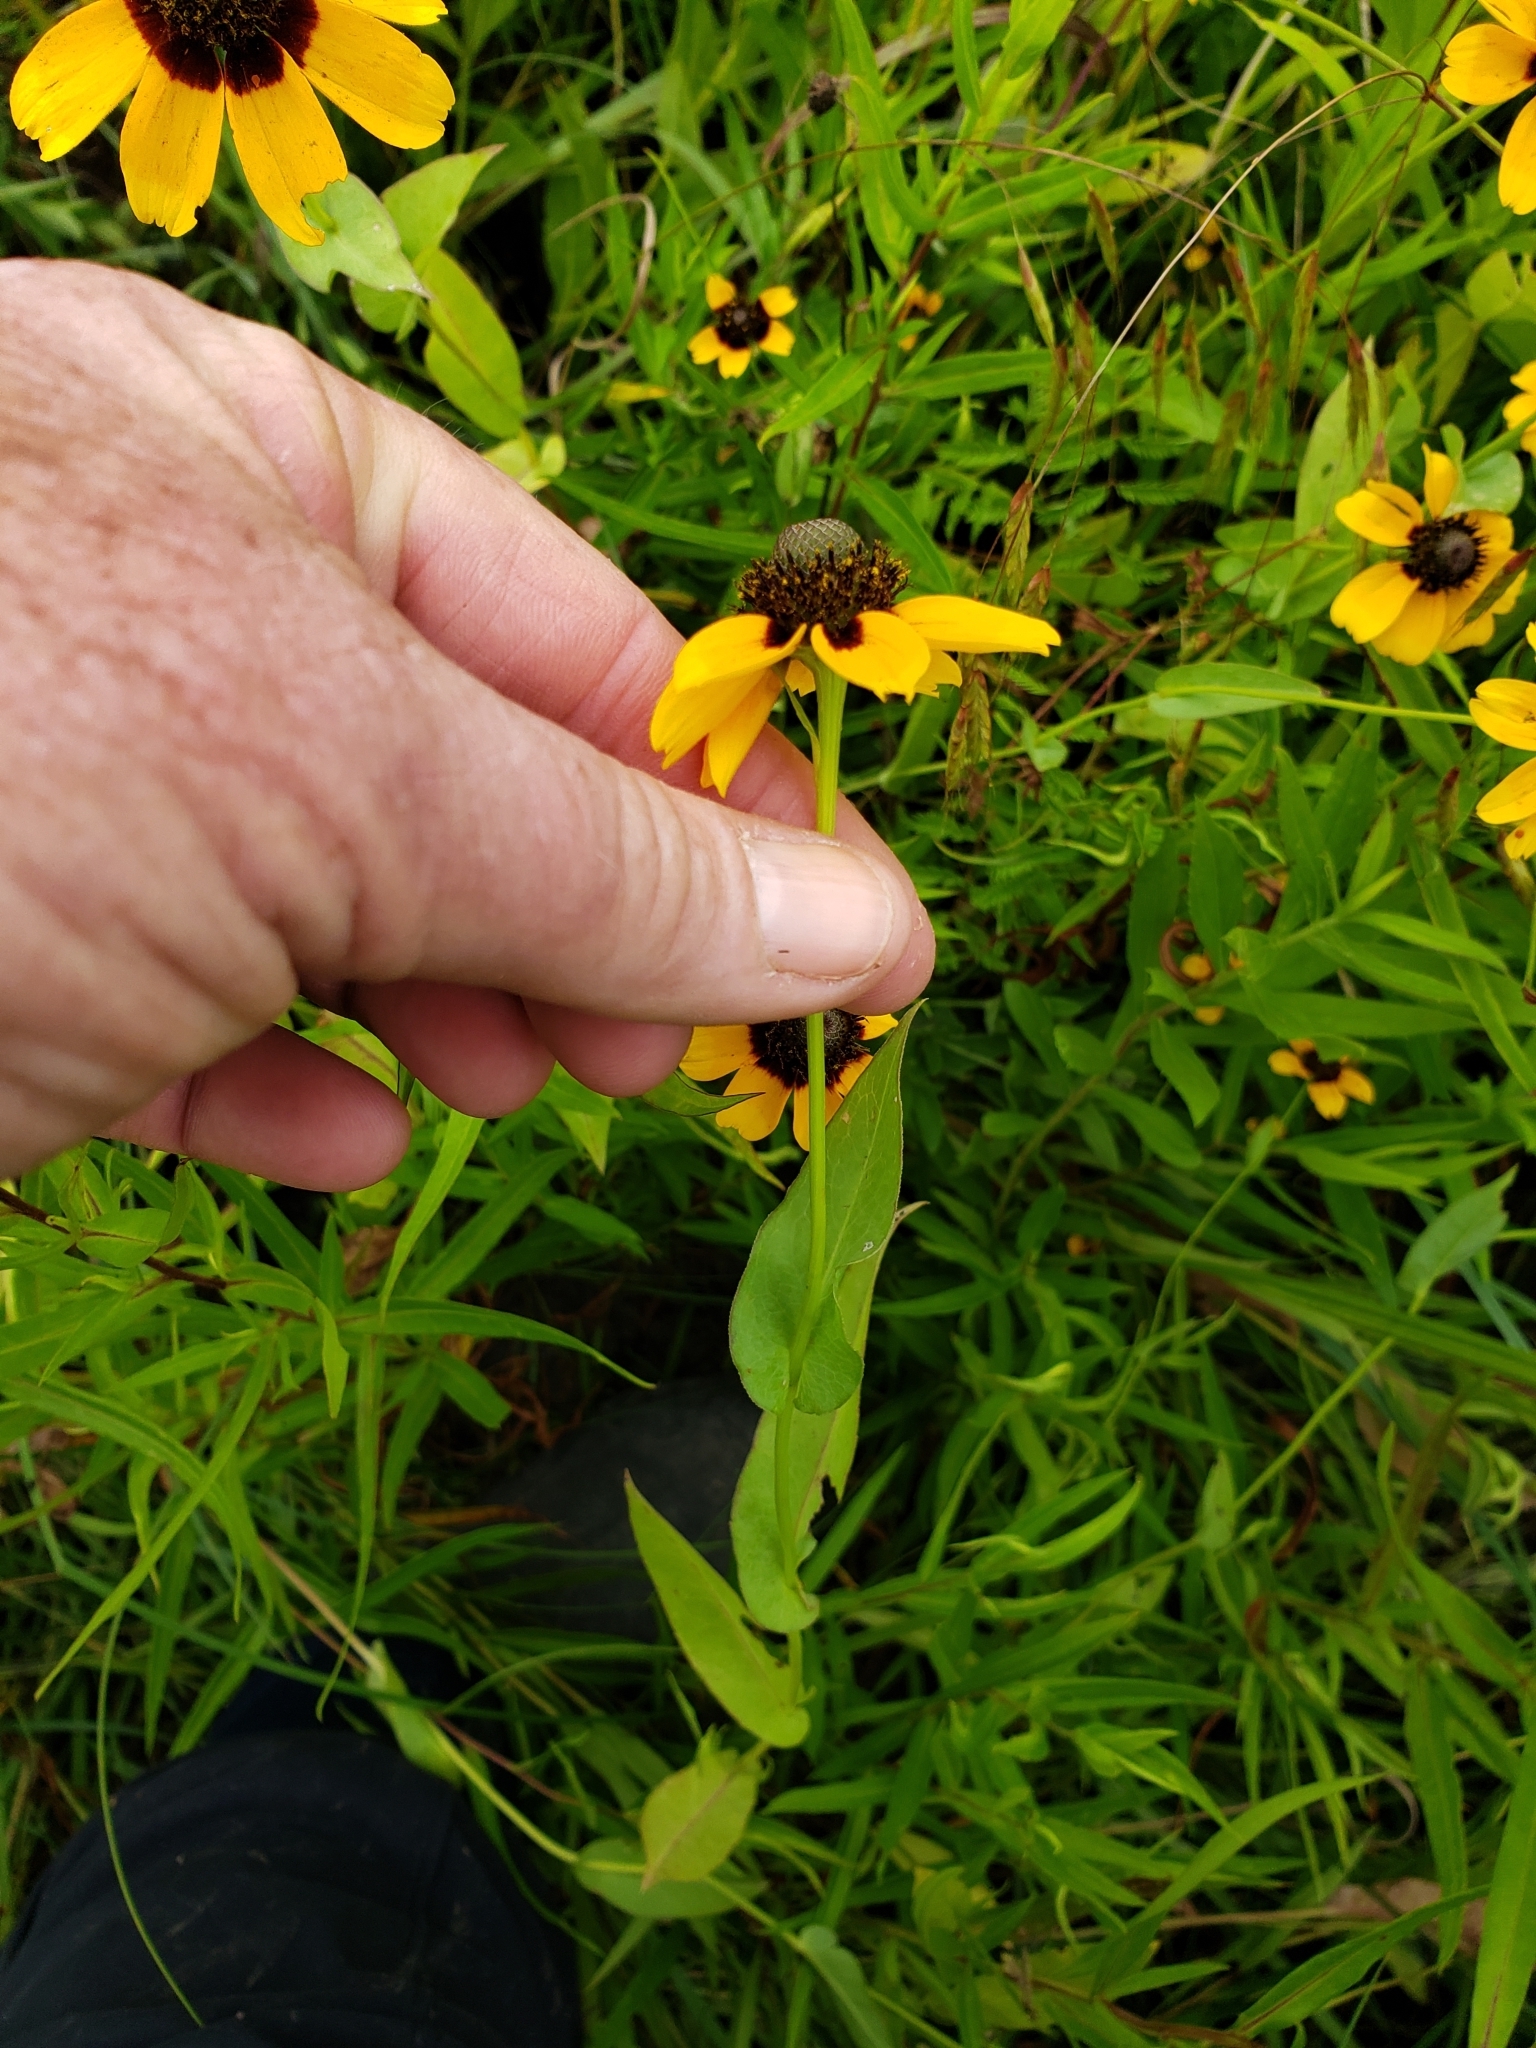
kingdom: Plantae
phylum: Tracheophyta
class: Magnoliopsida
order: Asterales
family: Asteraceae
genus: Rudbeckia
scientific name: Rudbeckia amplexicaulis
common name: Clasping-leaf coneflower
